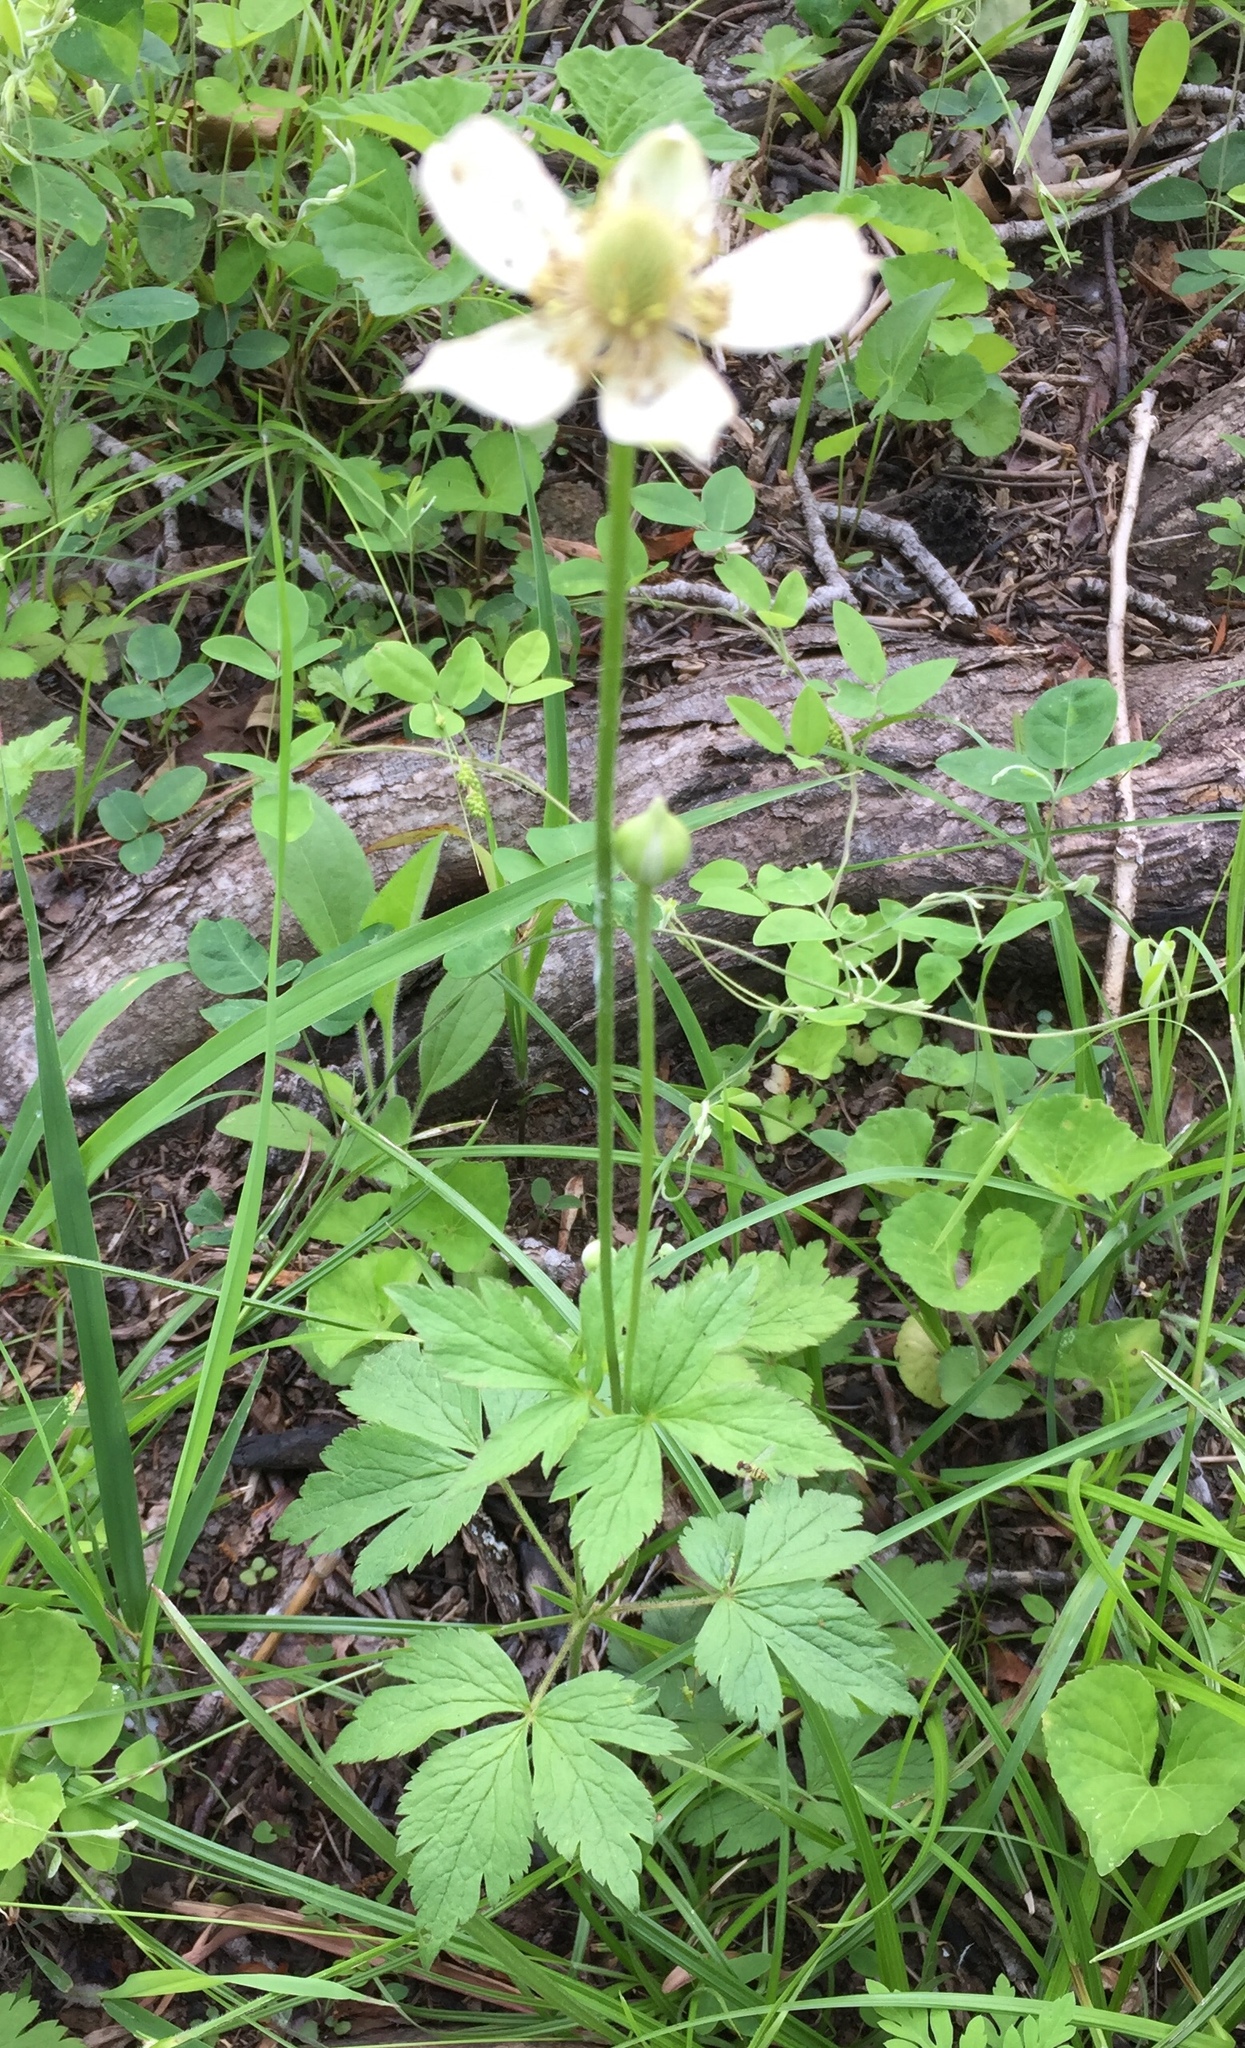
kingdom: Plantae
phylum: Tracheophyta
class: Magnoliopsida
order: Ranunculales
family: Ranunculaceae
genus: Anemone
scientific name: Anemone virginiana
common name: Tall anemone
